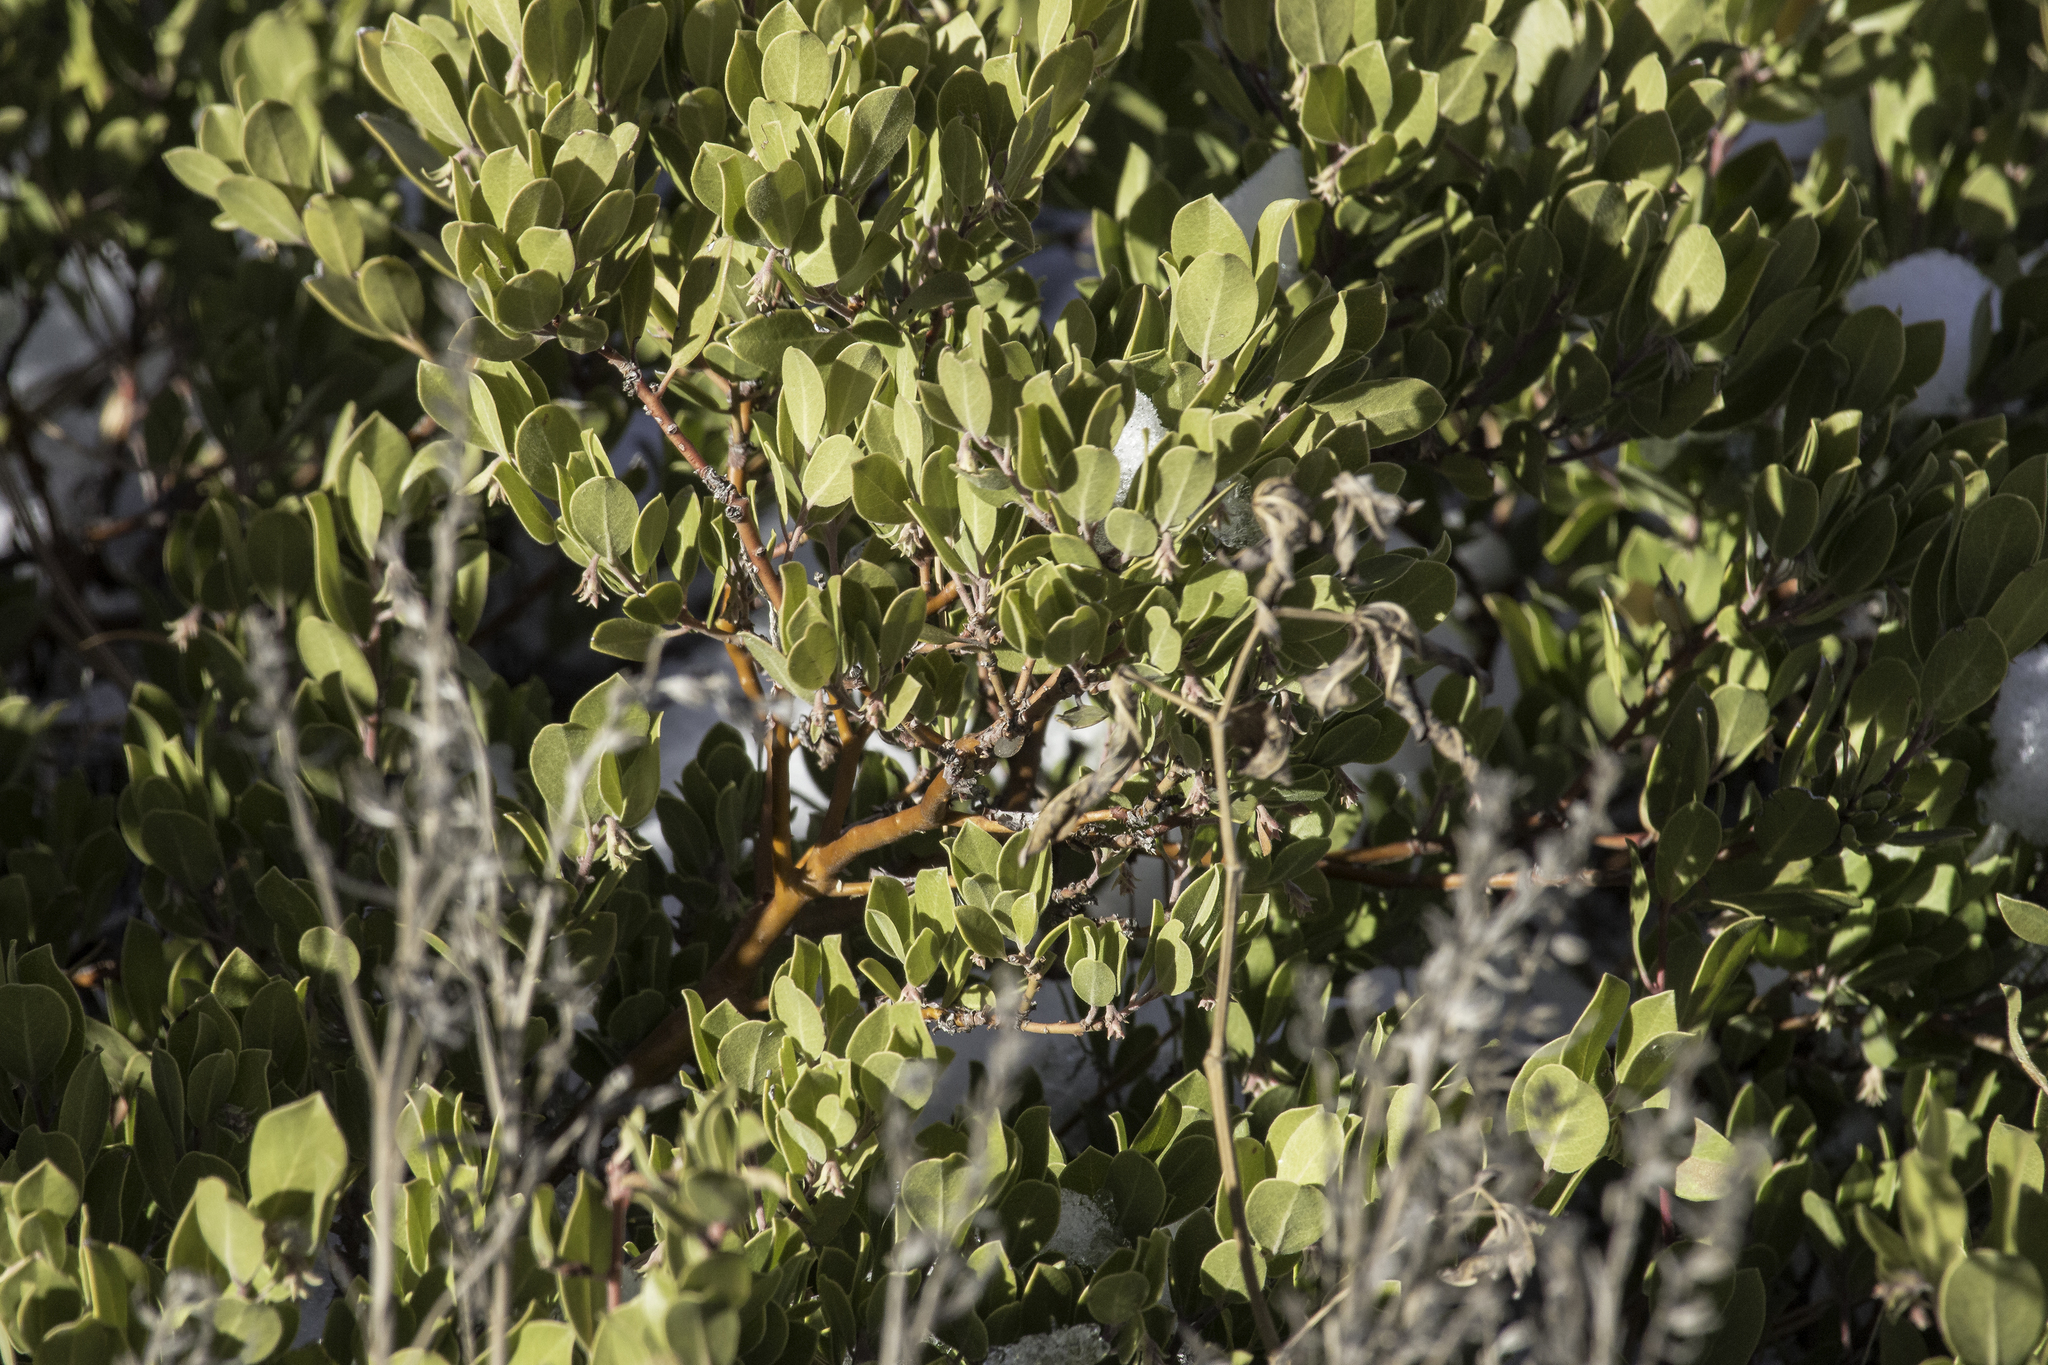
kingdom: Plantae
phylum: Tracheophyta
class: Magnoliopsida
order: Ericales
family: Ericaceae
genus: Arctostaphylos
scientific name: Arctostaphylos pungens
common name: Mexican manzanita
